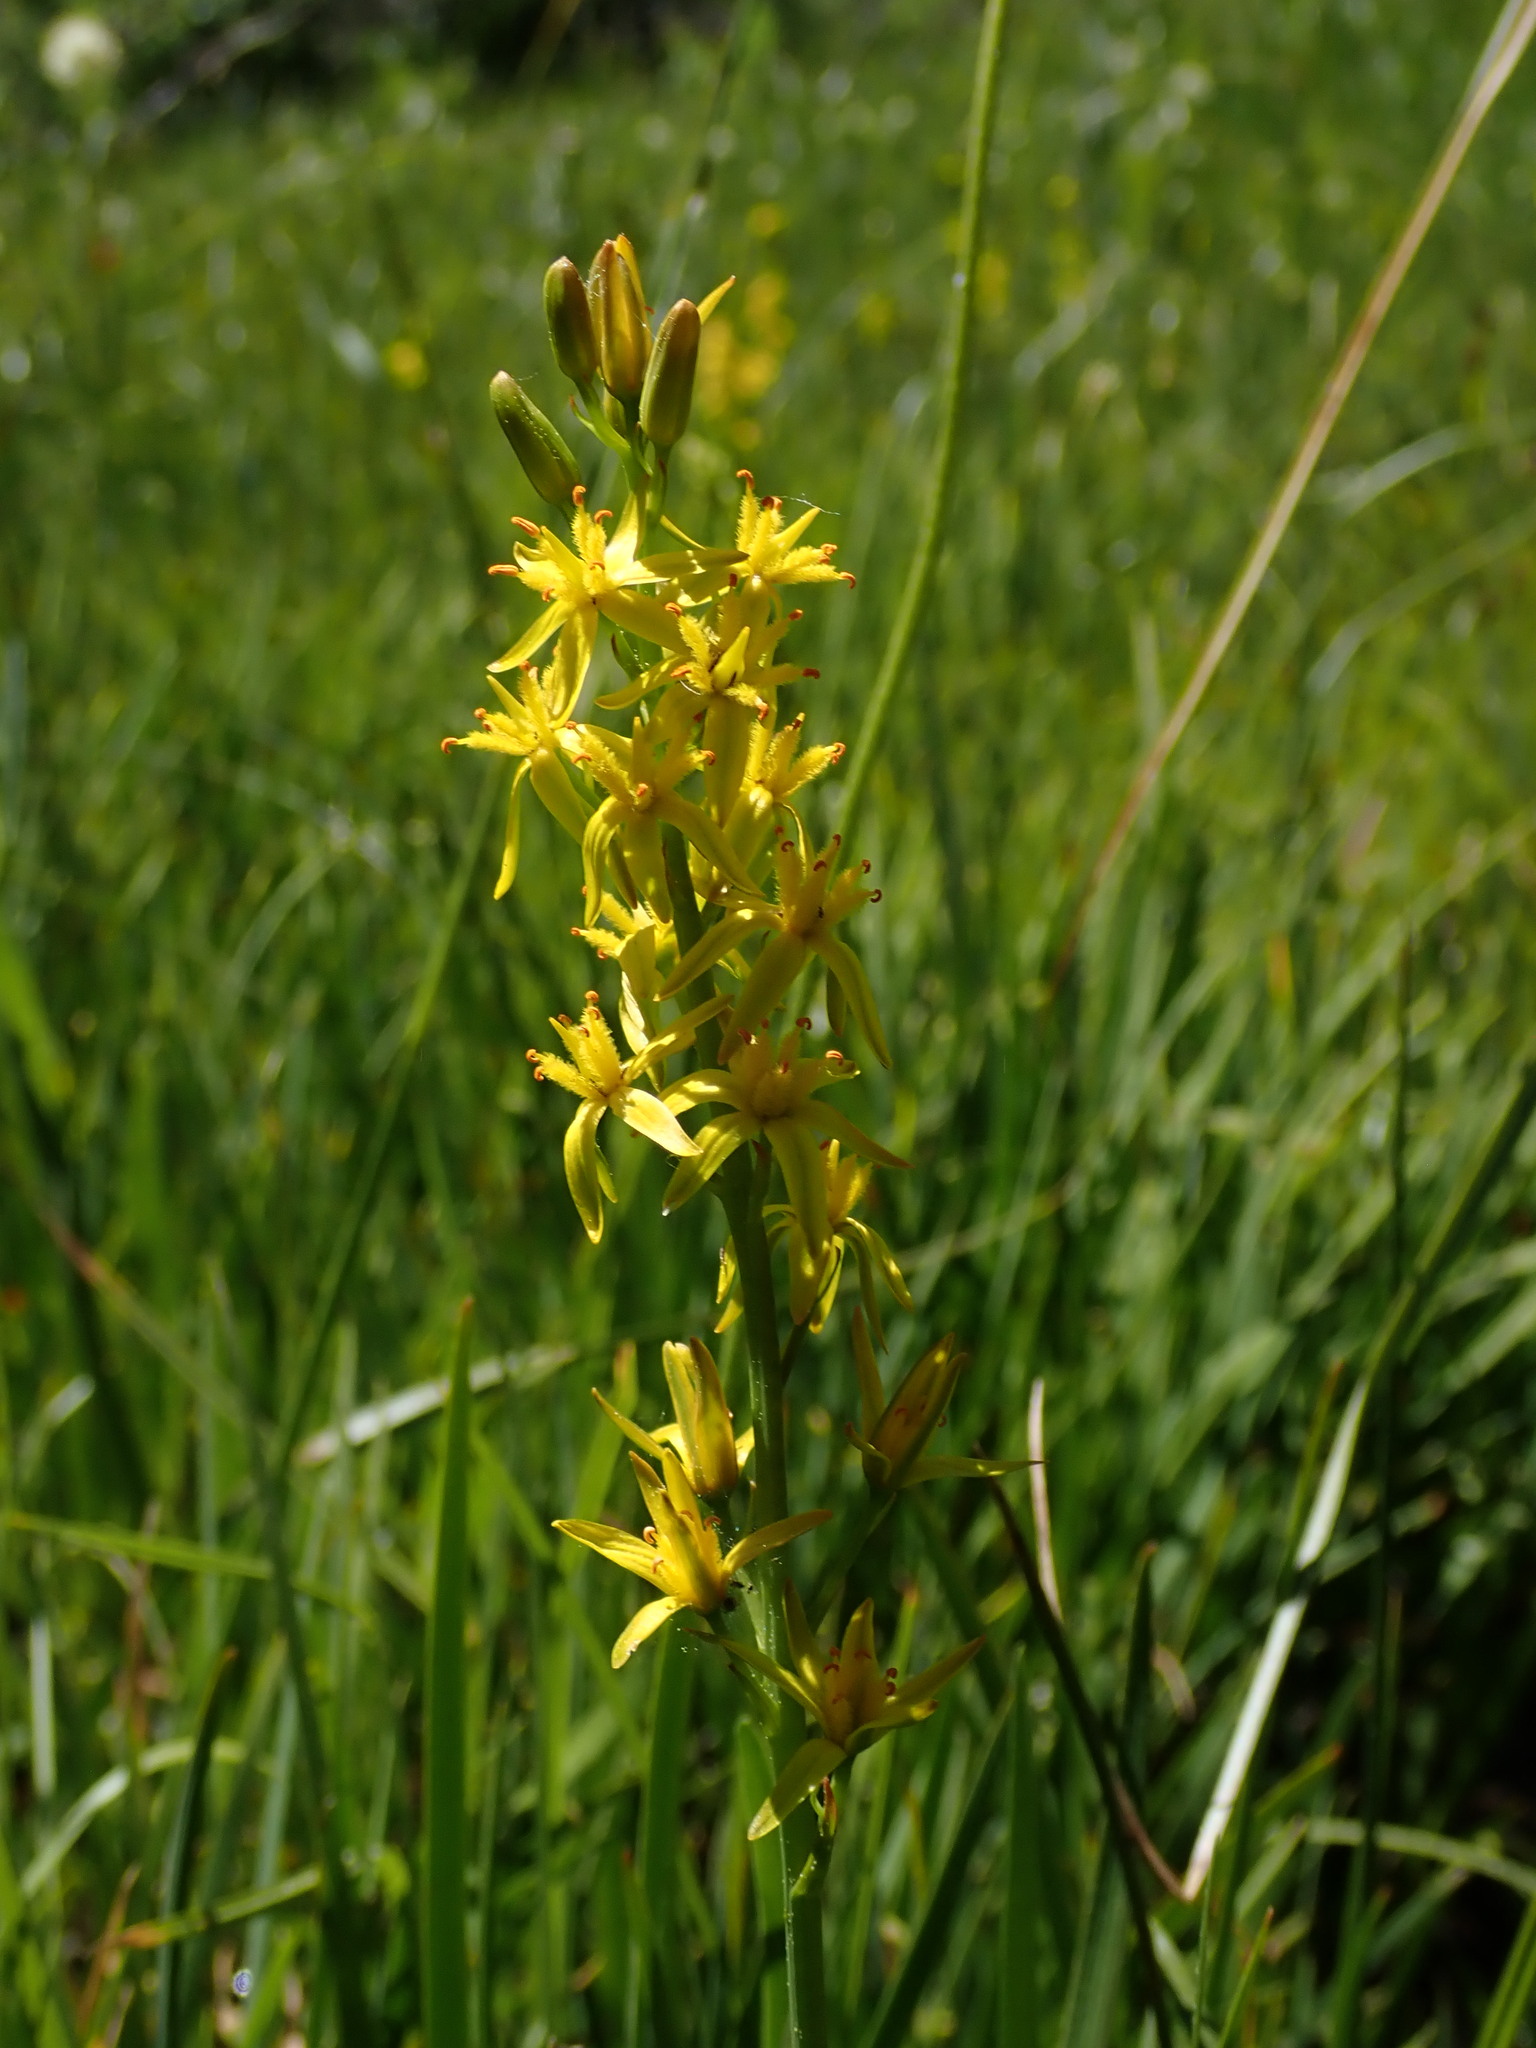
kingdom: Plantae
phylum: Tracheophyta
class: Liliopsida
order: Dioscoreales
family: Nartheciaceae
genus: Narthecium
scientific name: Narthecium californicum
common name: California bog-asphodel
